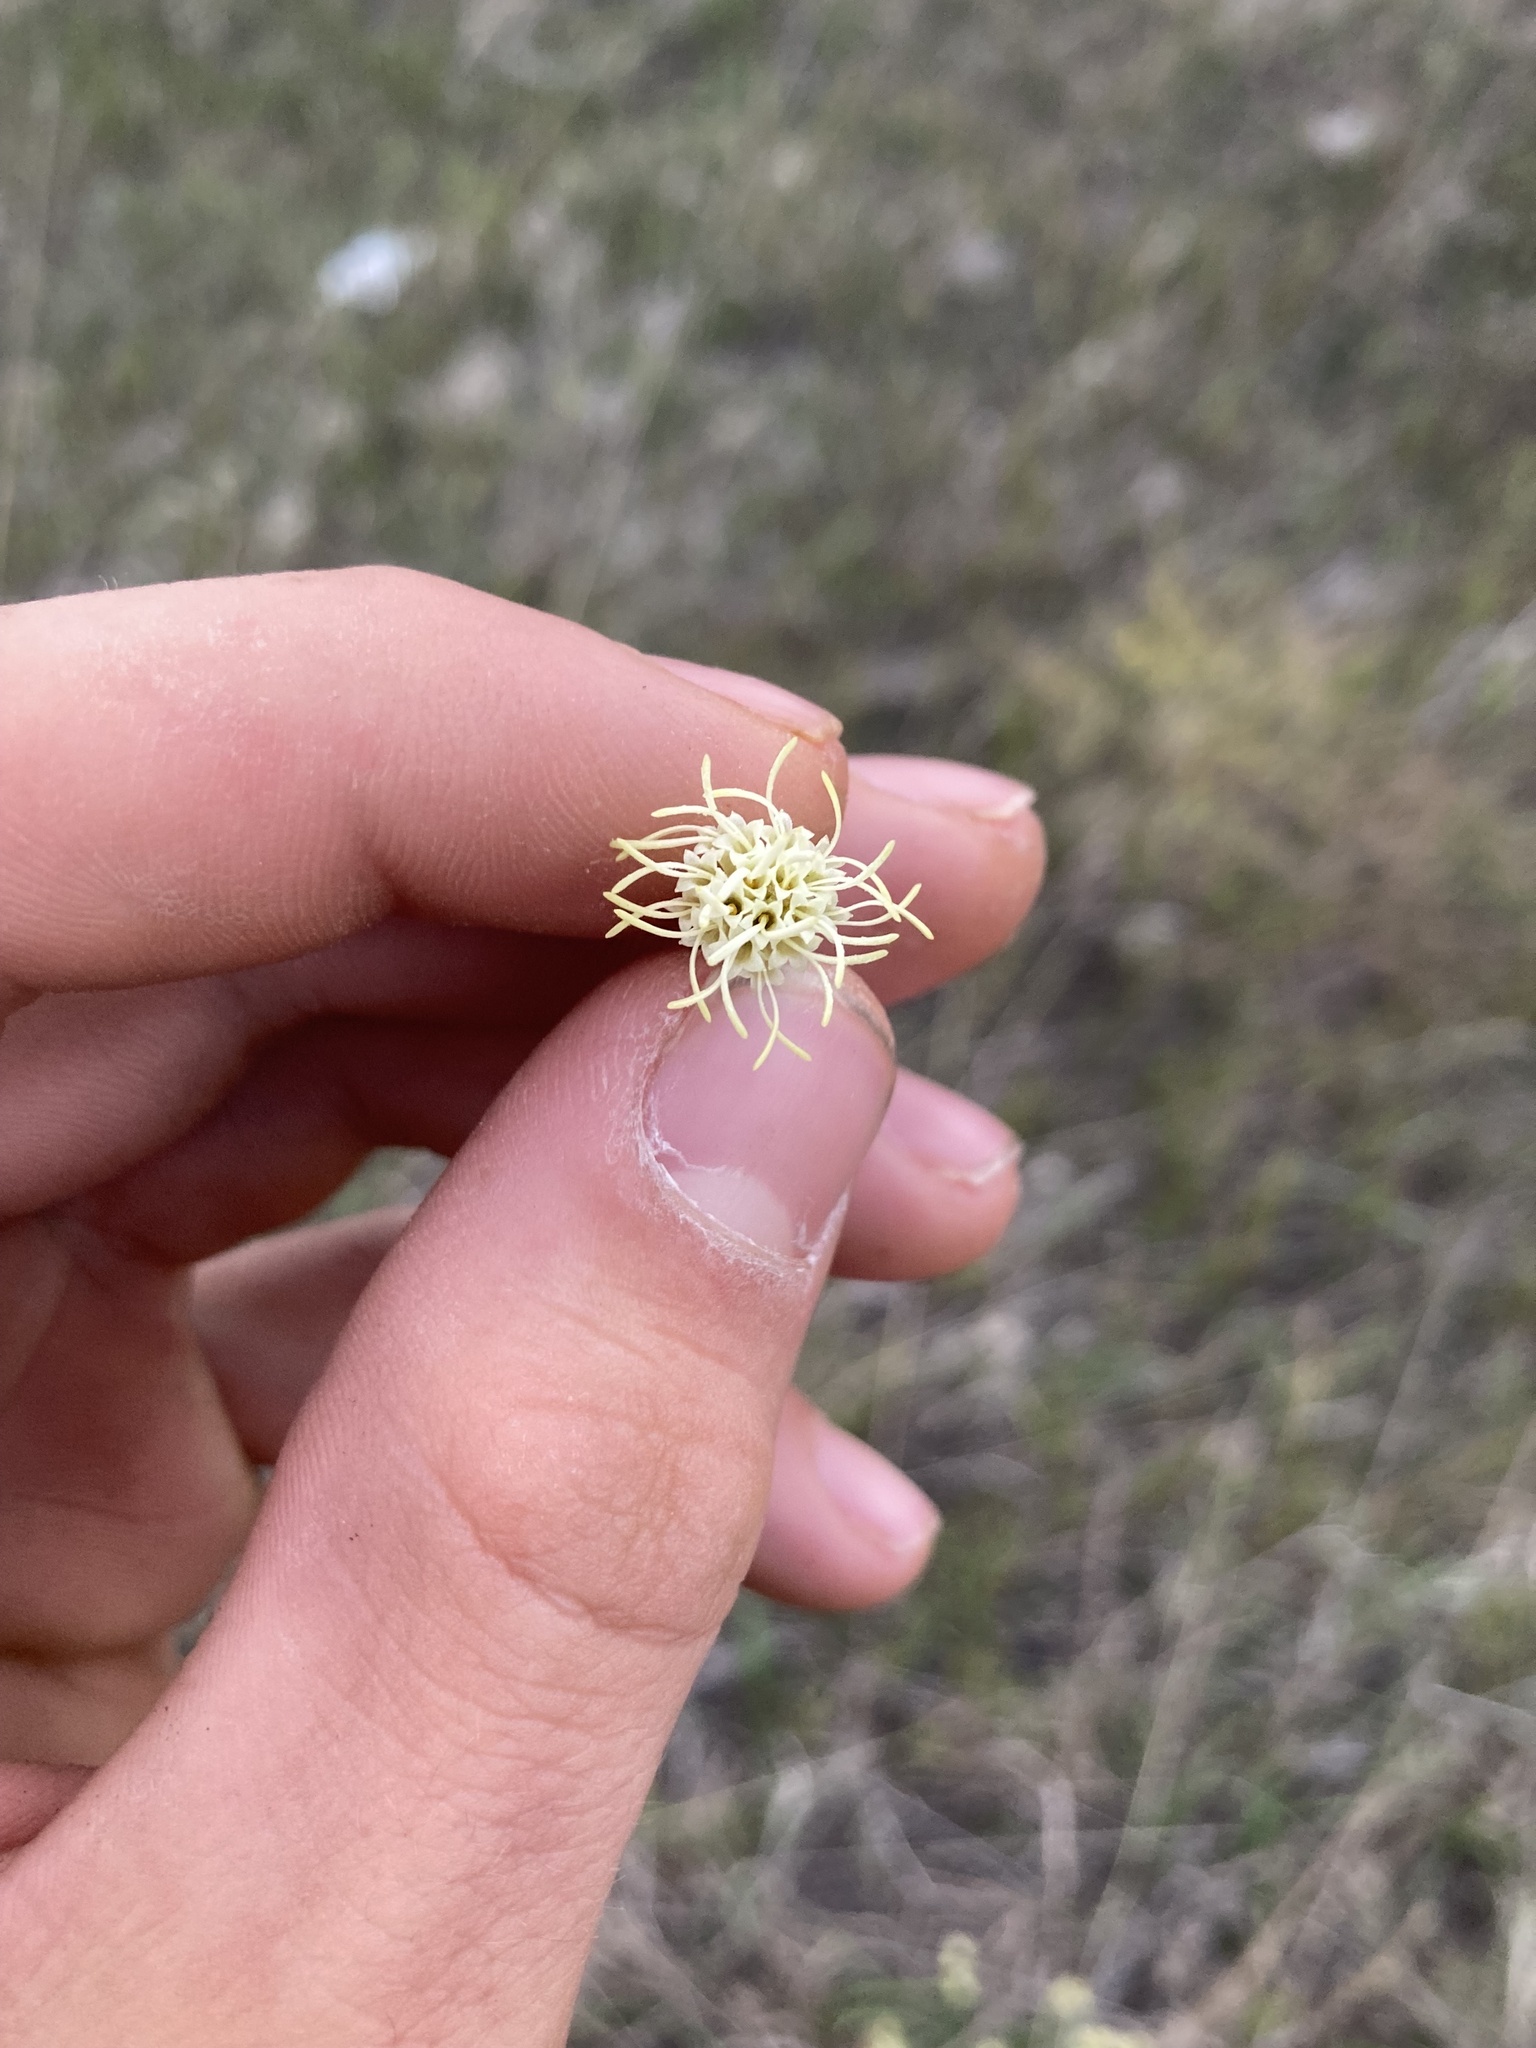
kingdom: Plantae
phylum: Tracheophyta
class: Magnoliopsida
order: Asterales
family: Asteraceae
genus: Brickellia
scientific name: Brickellia eupatorioides
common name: False boneset
